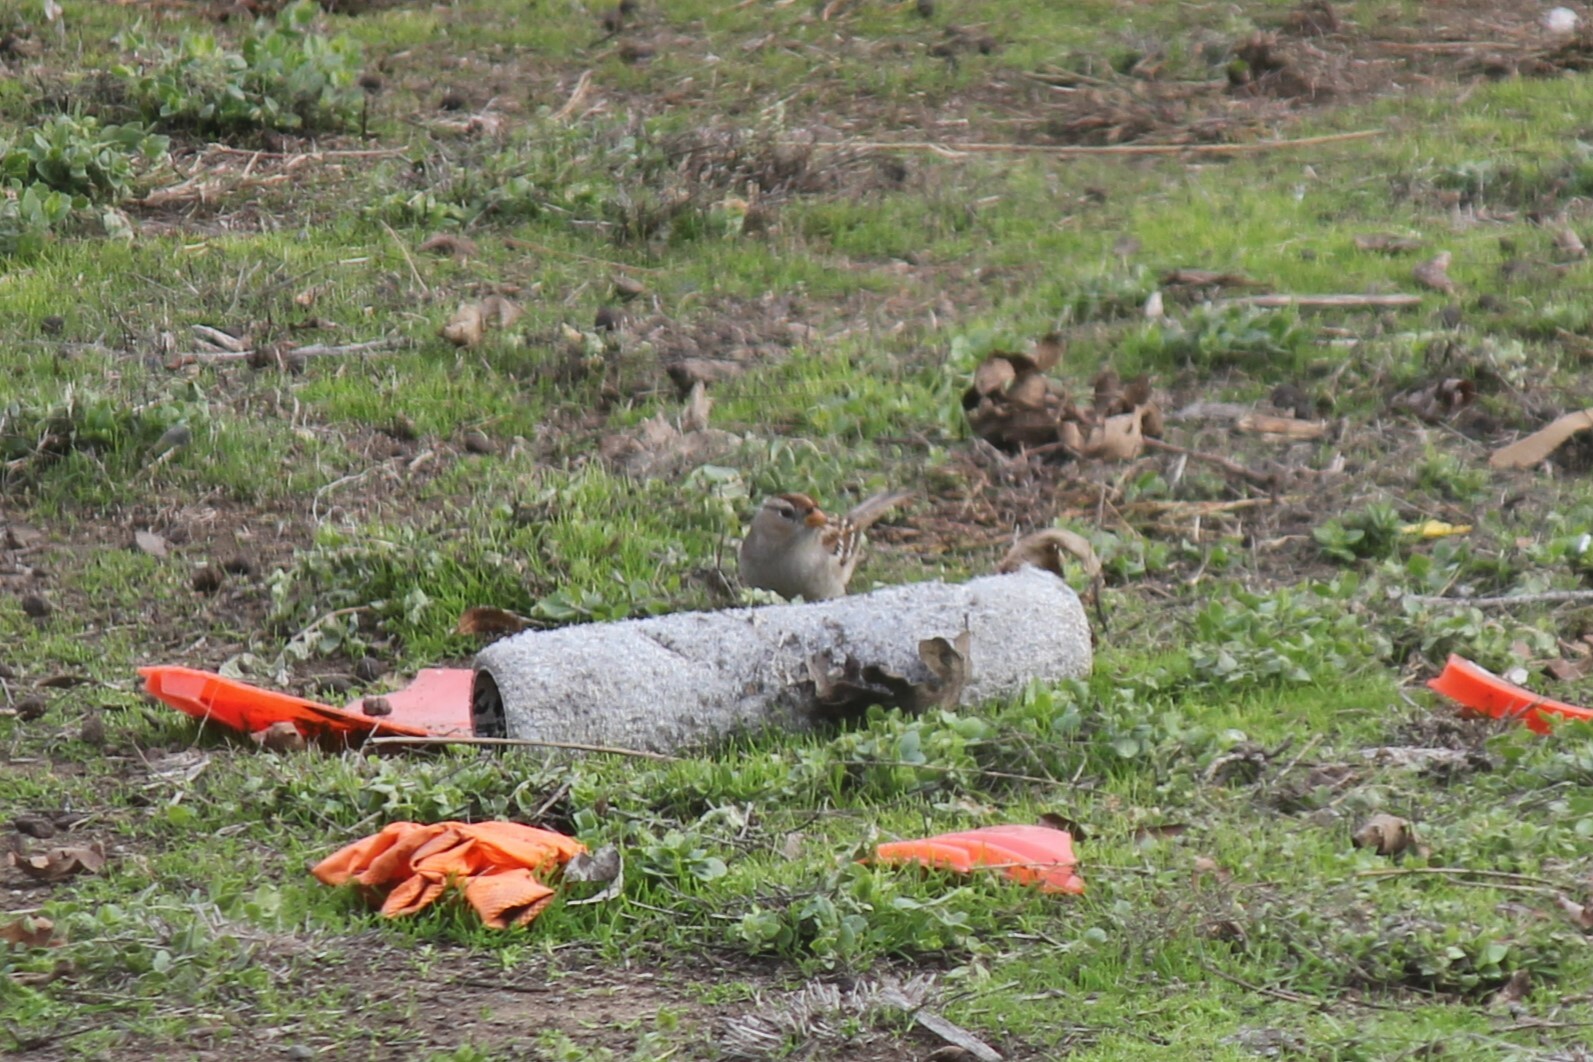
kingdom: Animalia
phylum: Chordata
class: Aves
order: Passeriformes
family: Passerellidae
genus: Zonotrichia
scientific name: Zonotrichia leucophrys
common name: White-crowned sparrow
